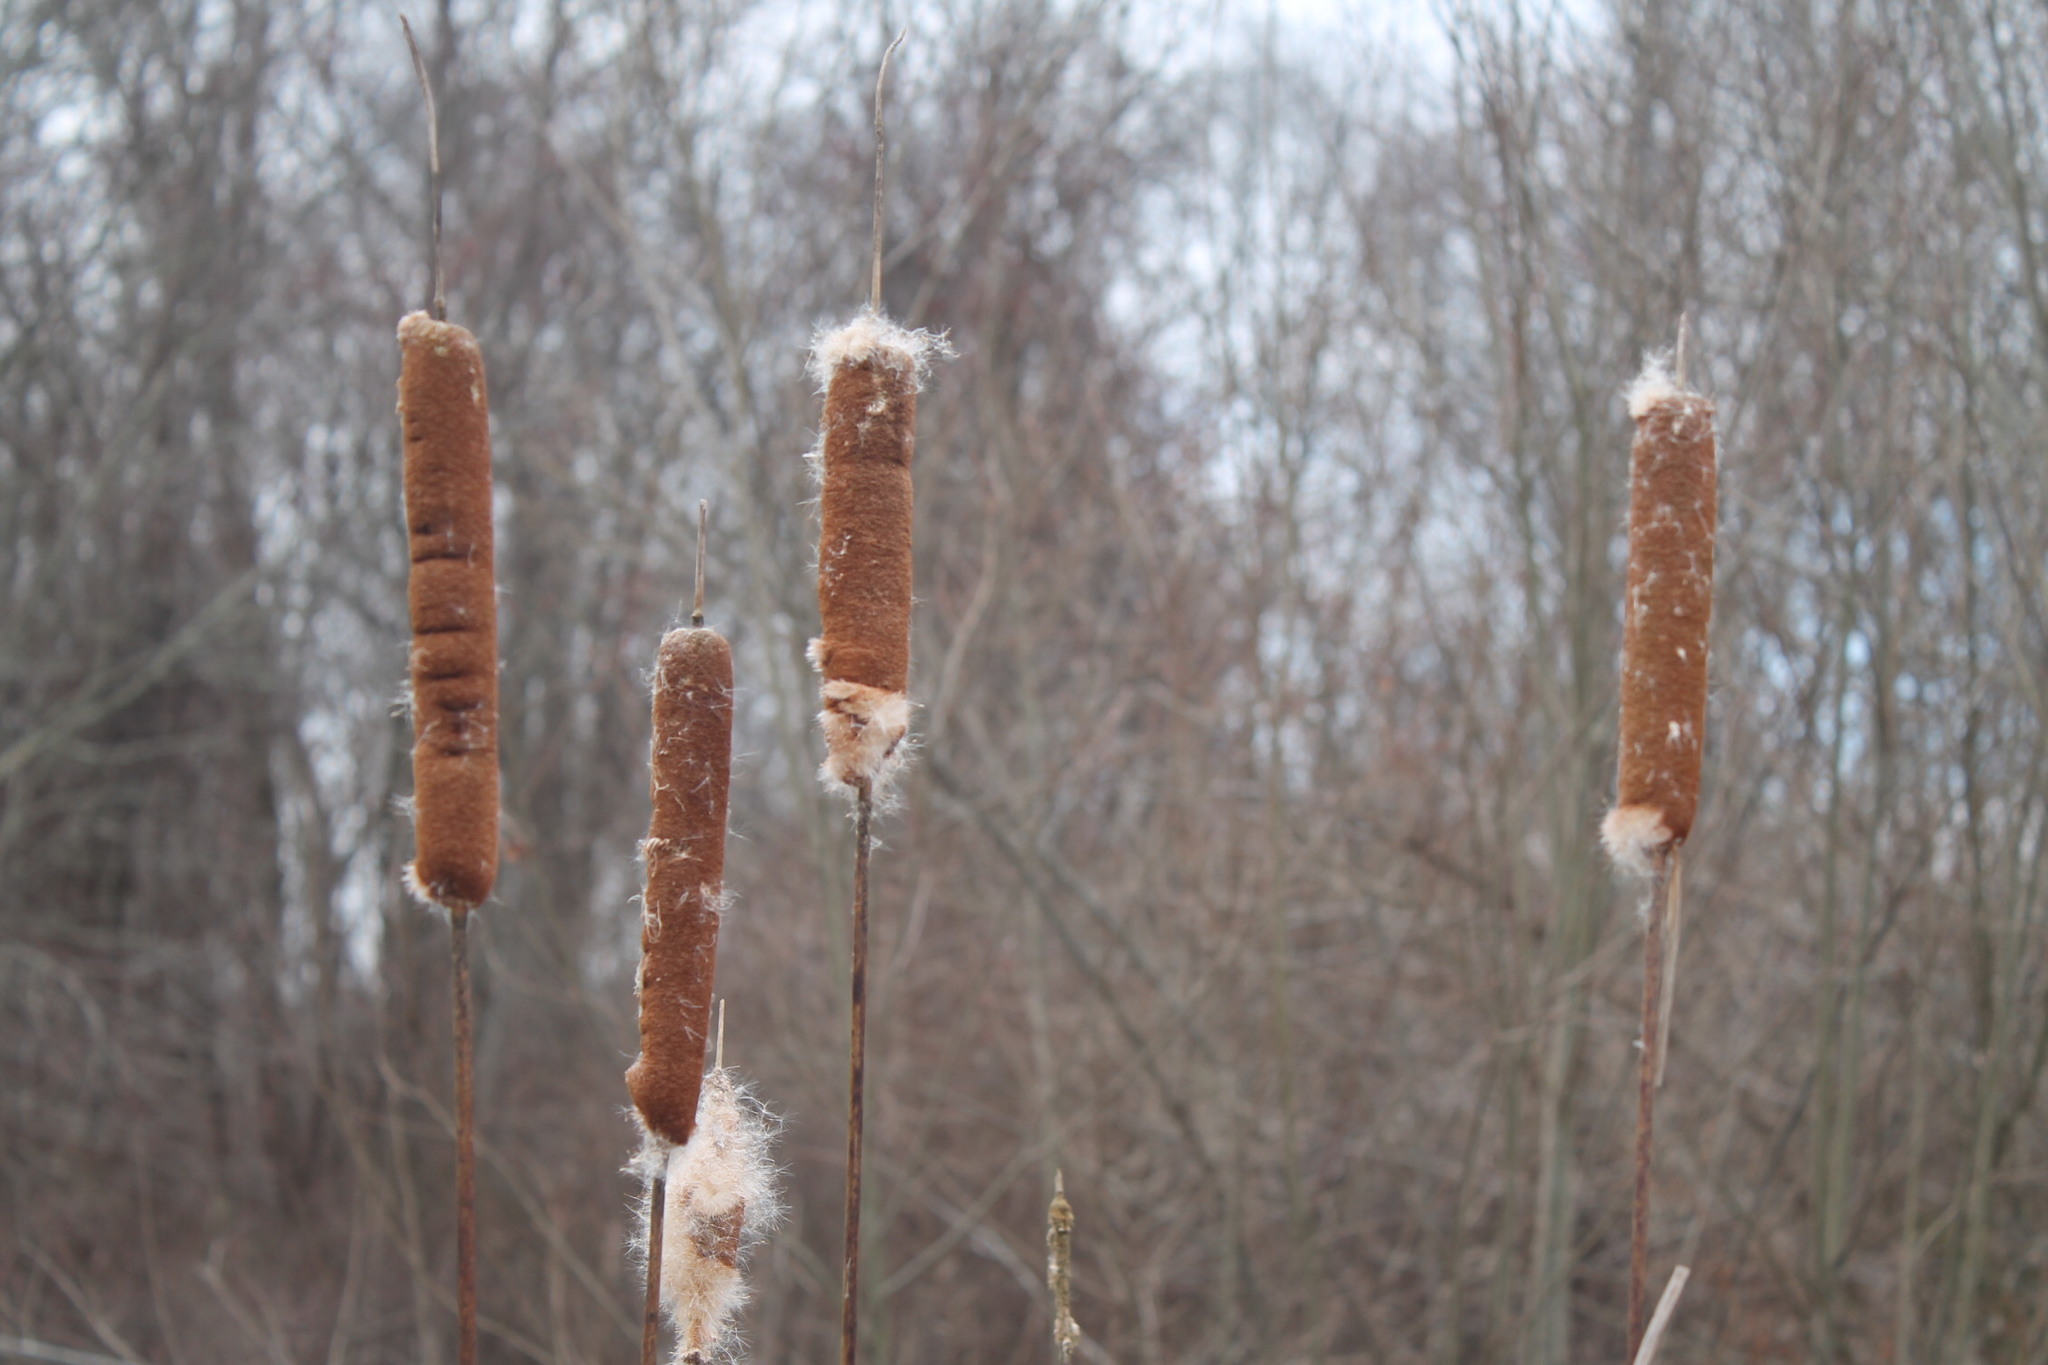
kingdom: Plantae
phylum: Tracheophyta
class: Liliopsida
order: Poales
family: Typhaceae
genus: Typha
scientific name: Typha latifolia
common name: Broadleaf cattail
